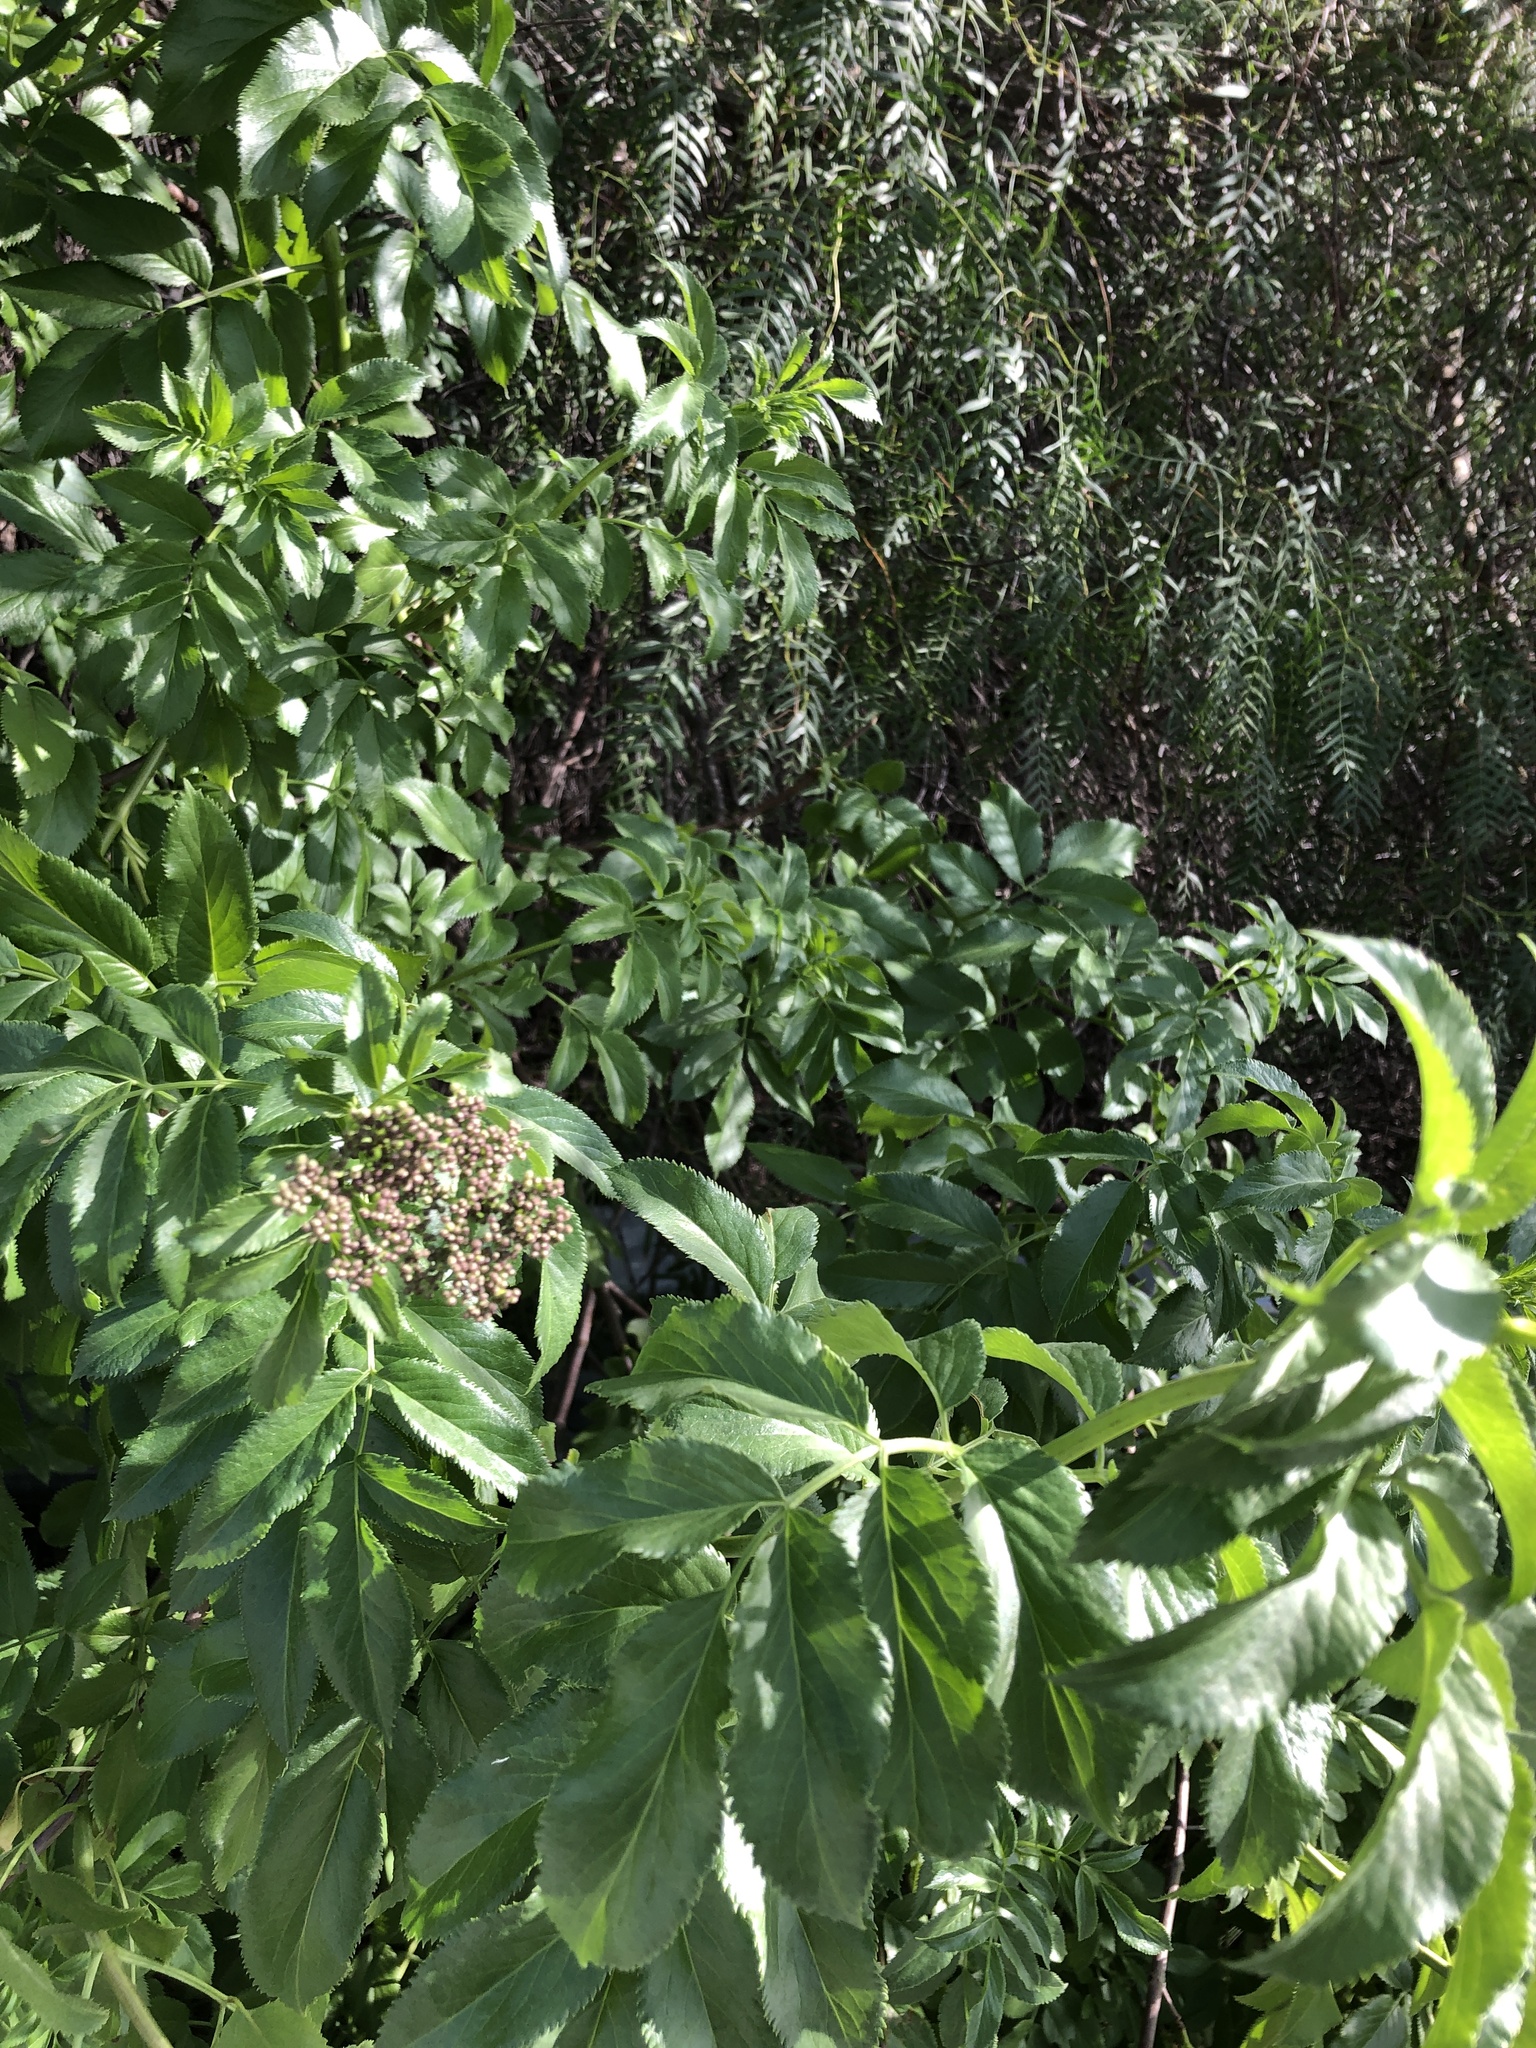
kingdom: Plantae
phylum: Tracheophyta
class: Magnoliopsida
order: Dipsacales
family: Viburnaceae
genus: Sambucus
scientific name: Sambucus cerulea
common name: Blue elder
